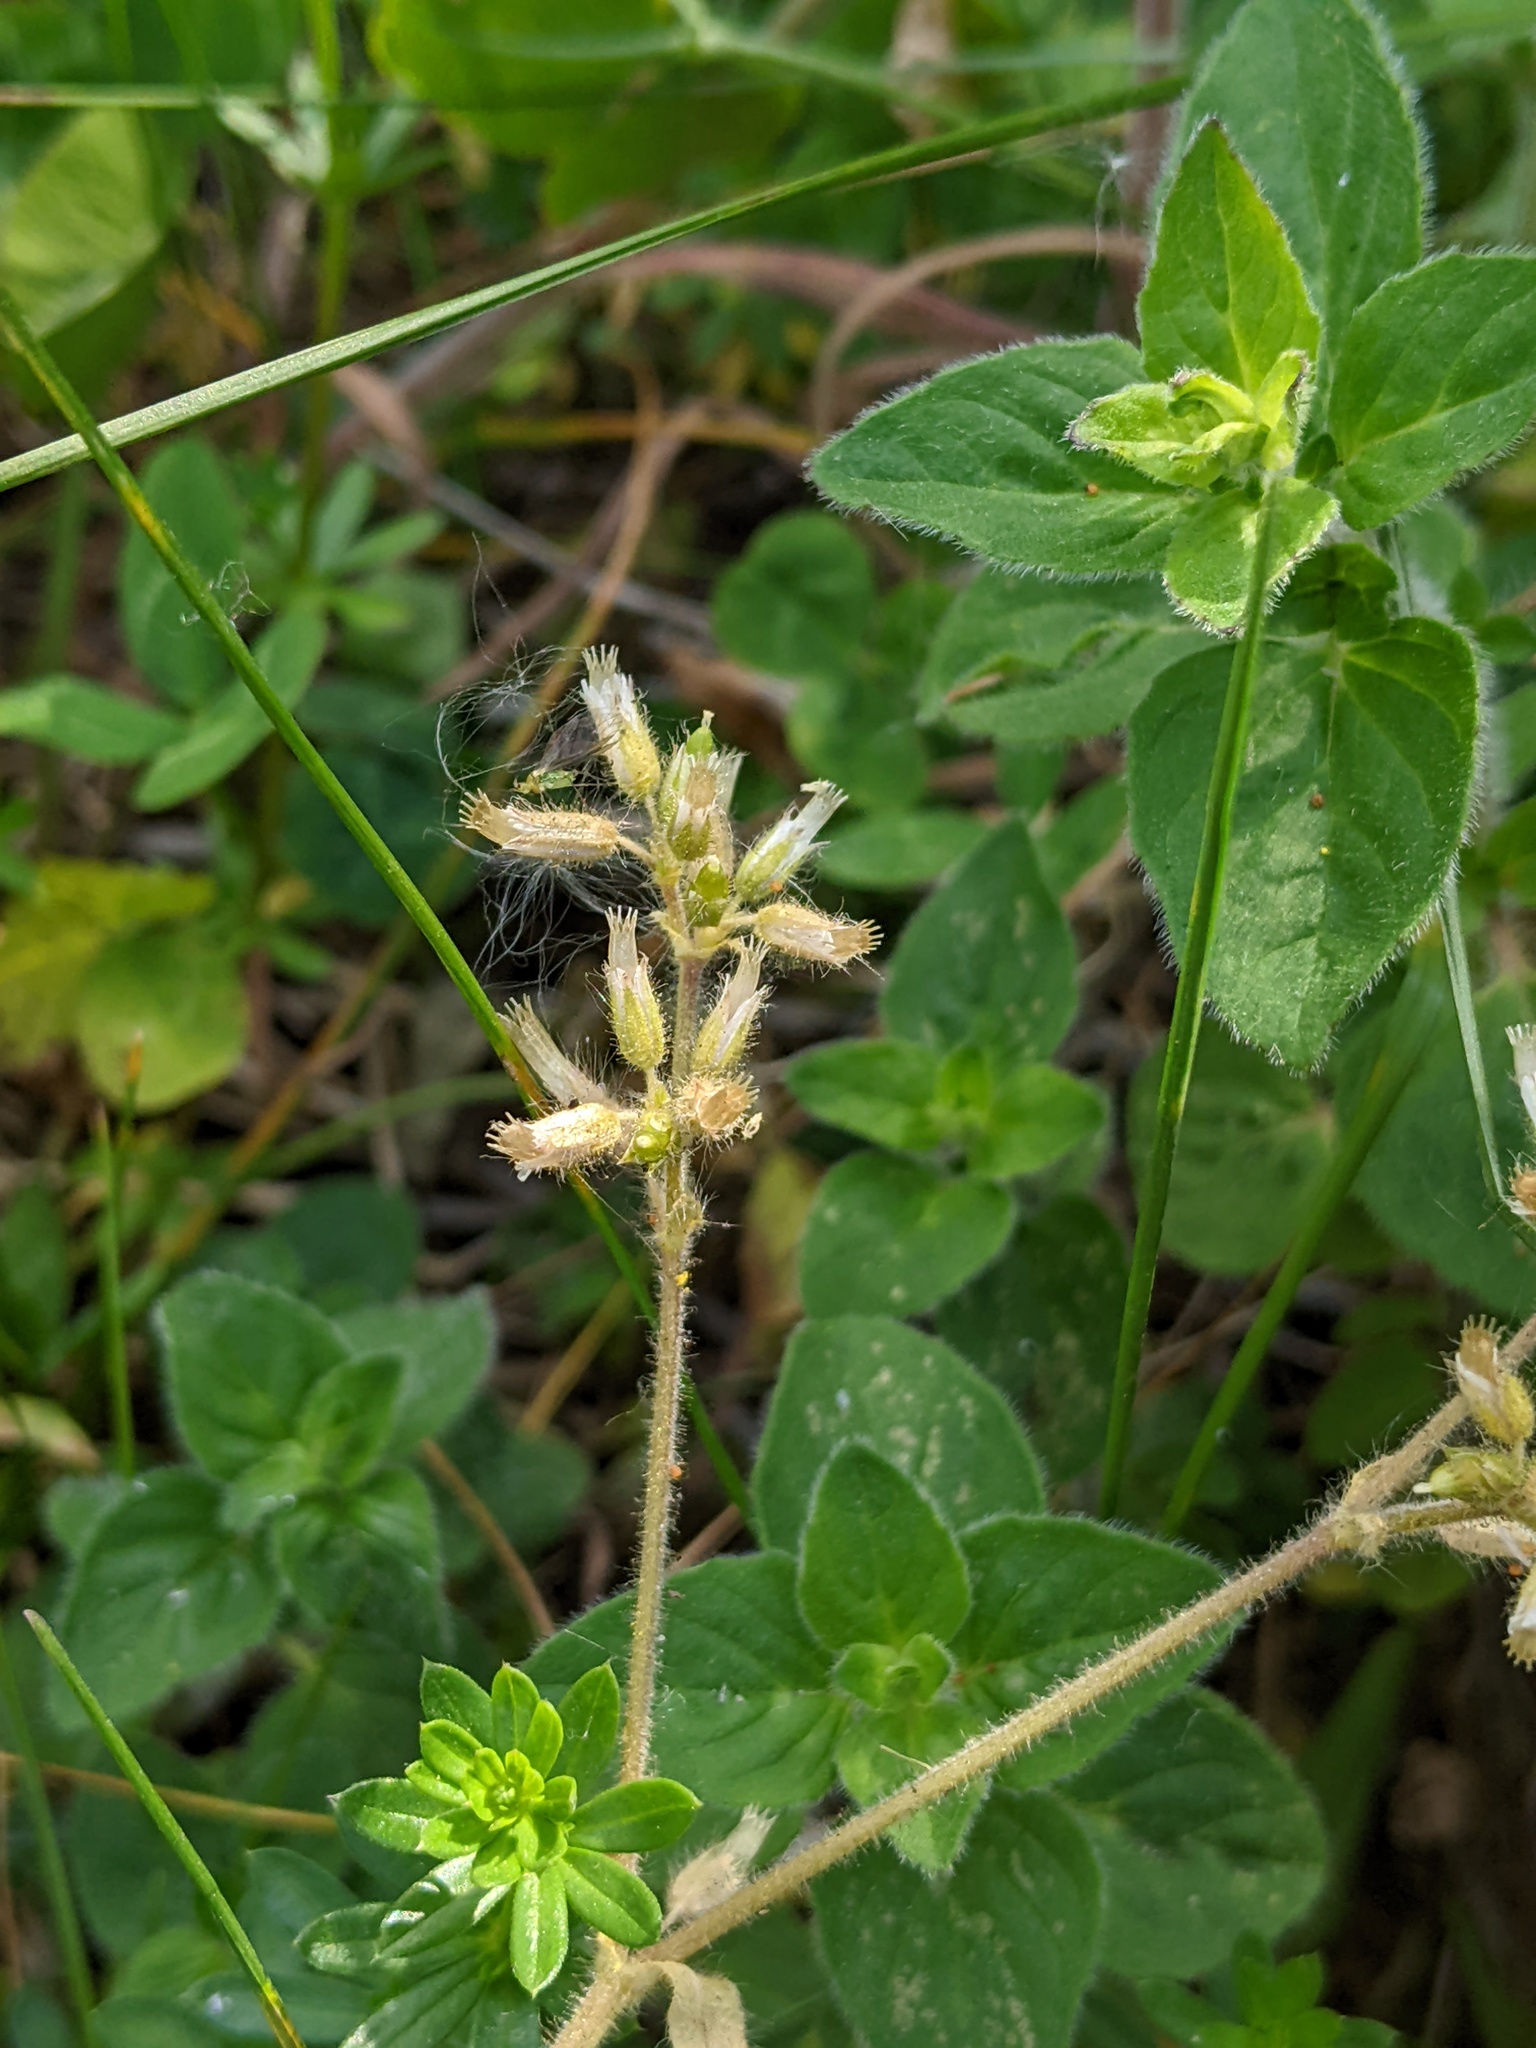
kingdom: Plantae
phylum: Tracheophyta
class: Magnoliopsida
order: Caryophyllales
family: Caryophyllaceae
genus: Cerastium
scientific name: Cerastium glomeratum
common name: Sticky chickweed
